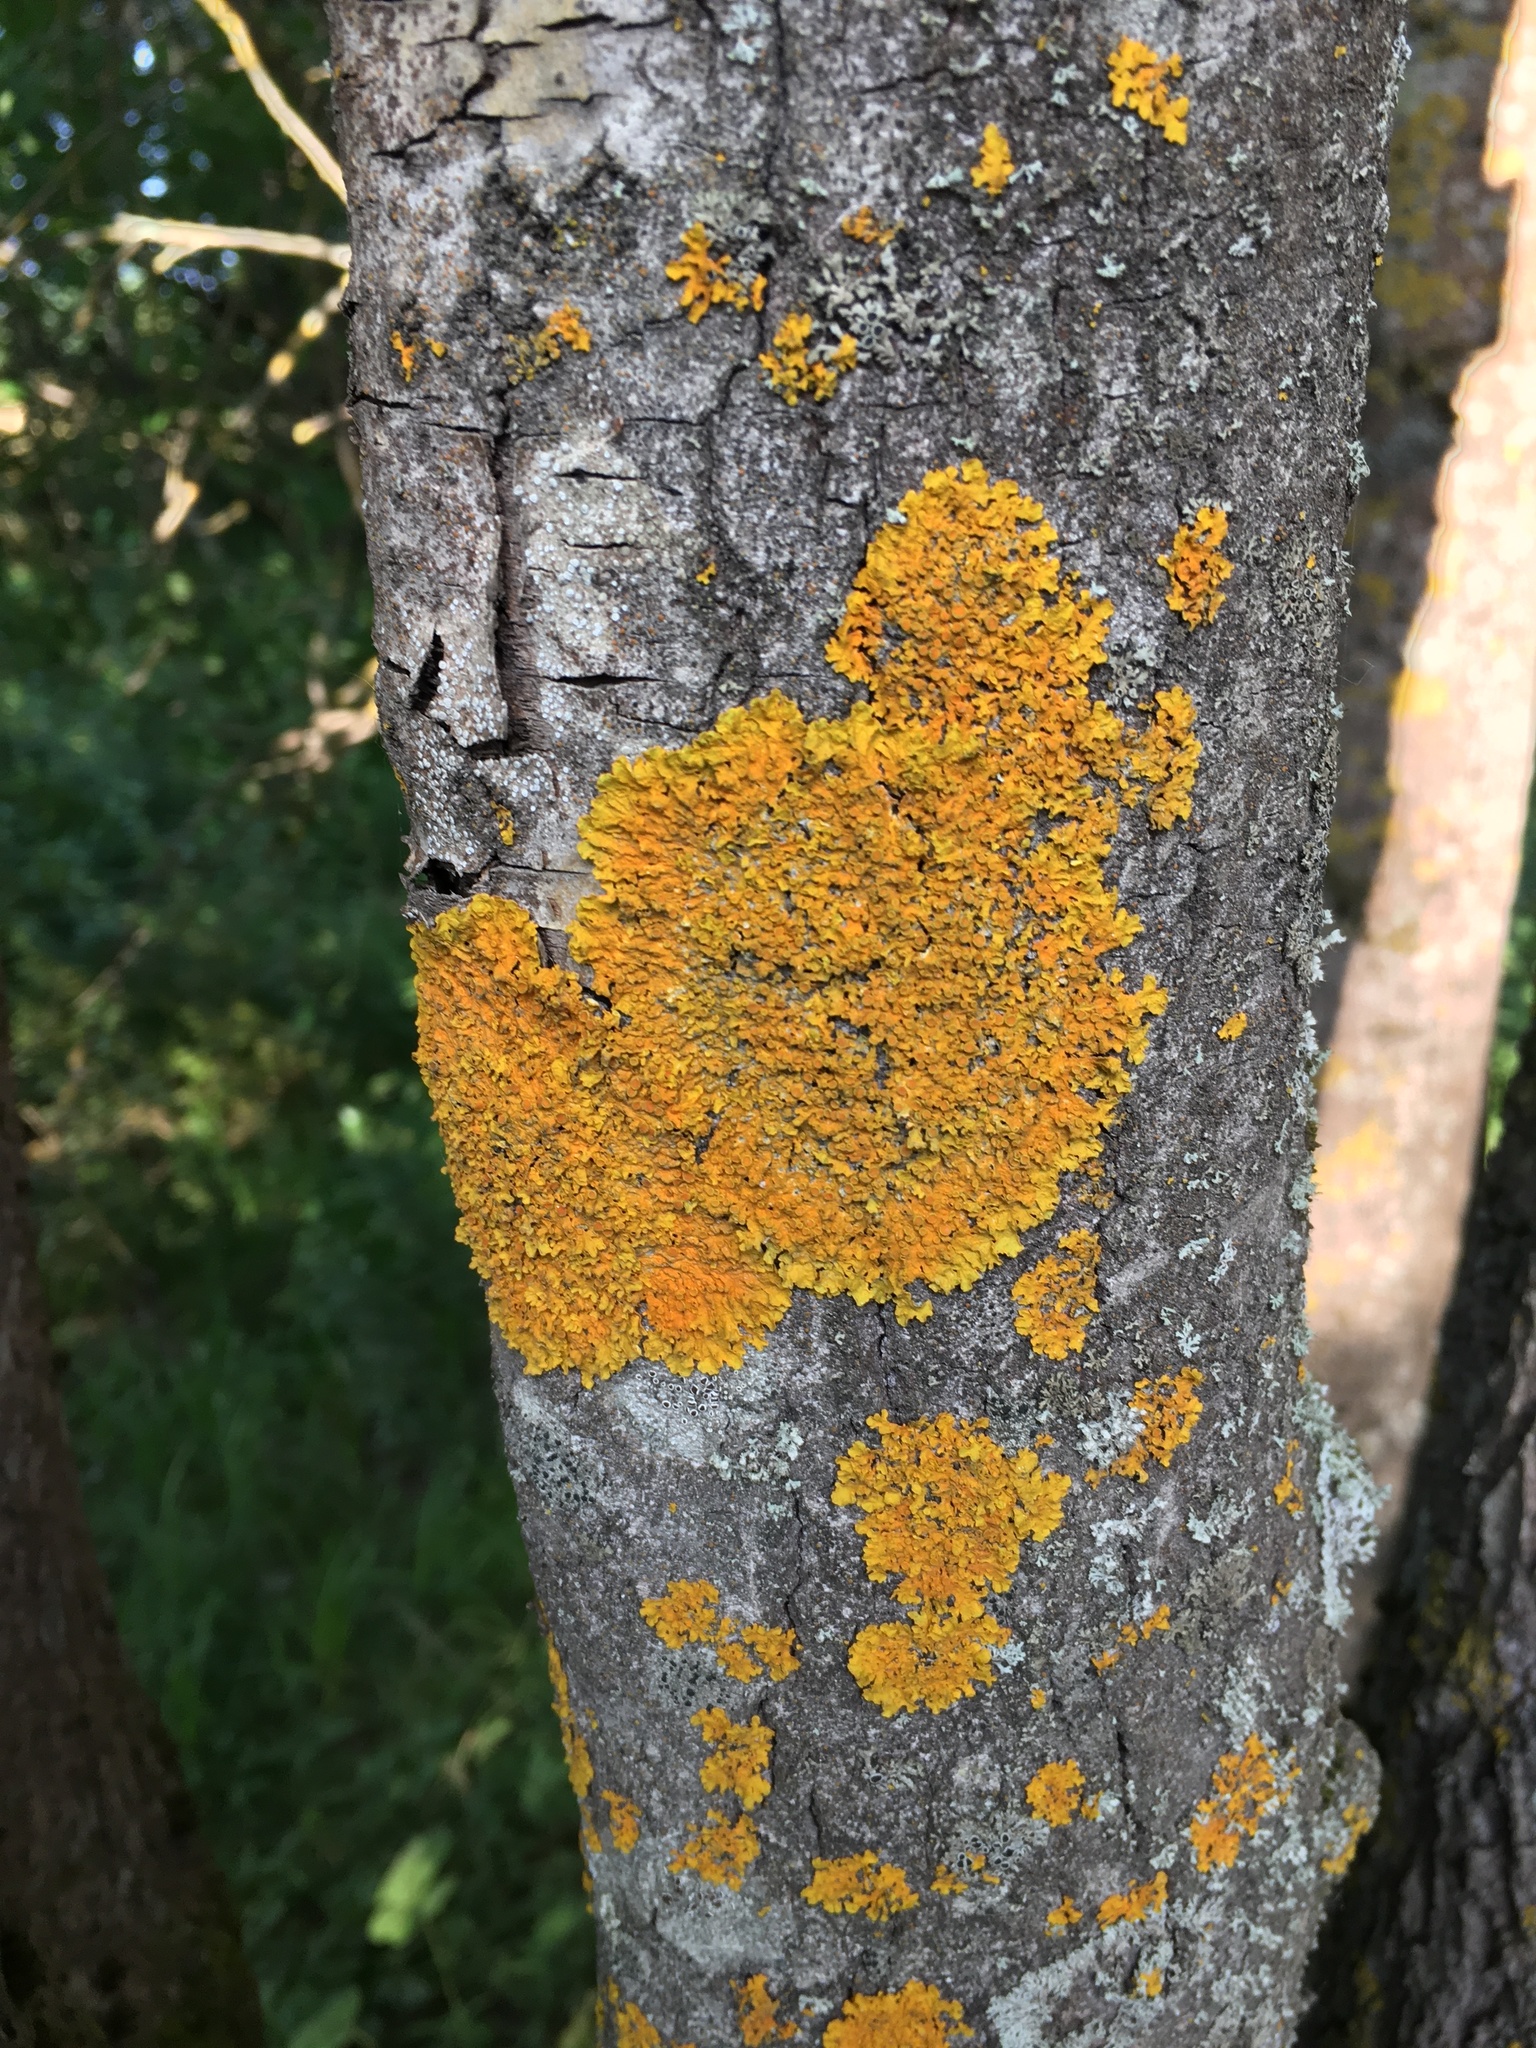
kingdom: Fungi
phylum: Ascomycota
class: Lecanoromycetes
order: Teloschistales
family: Teloschistaceae
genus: Xanthoria
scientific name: Xanthoria parietina
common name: Common orange lichen
